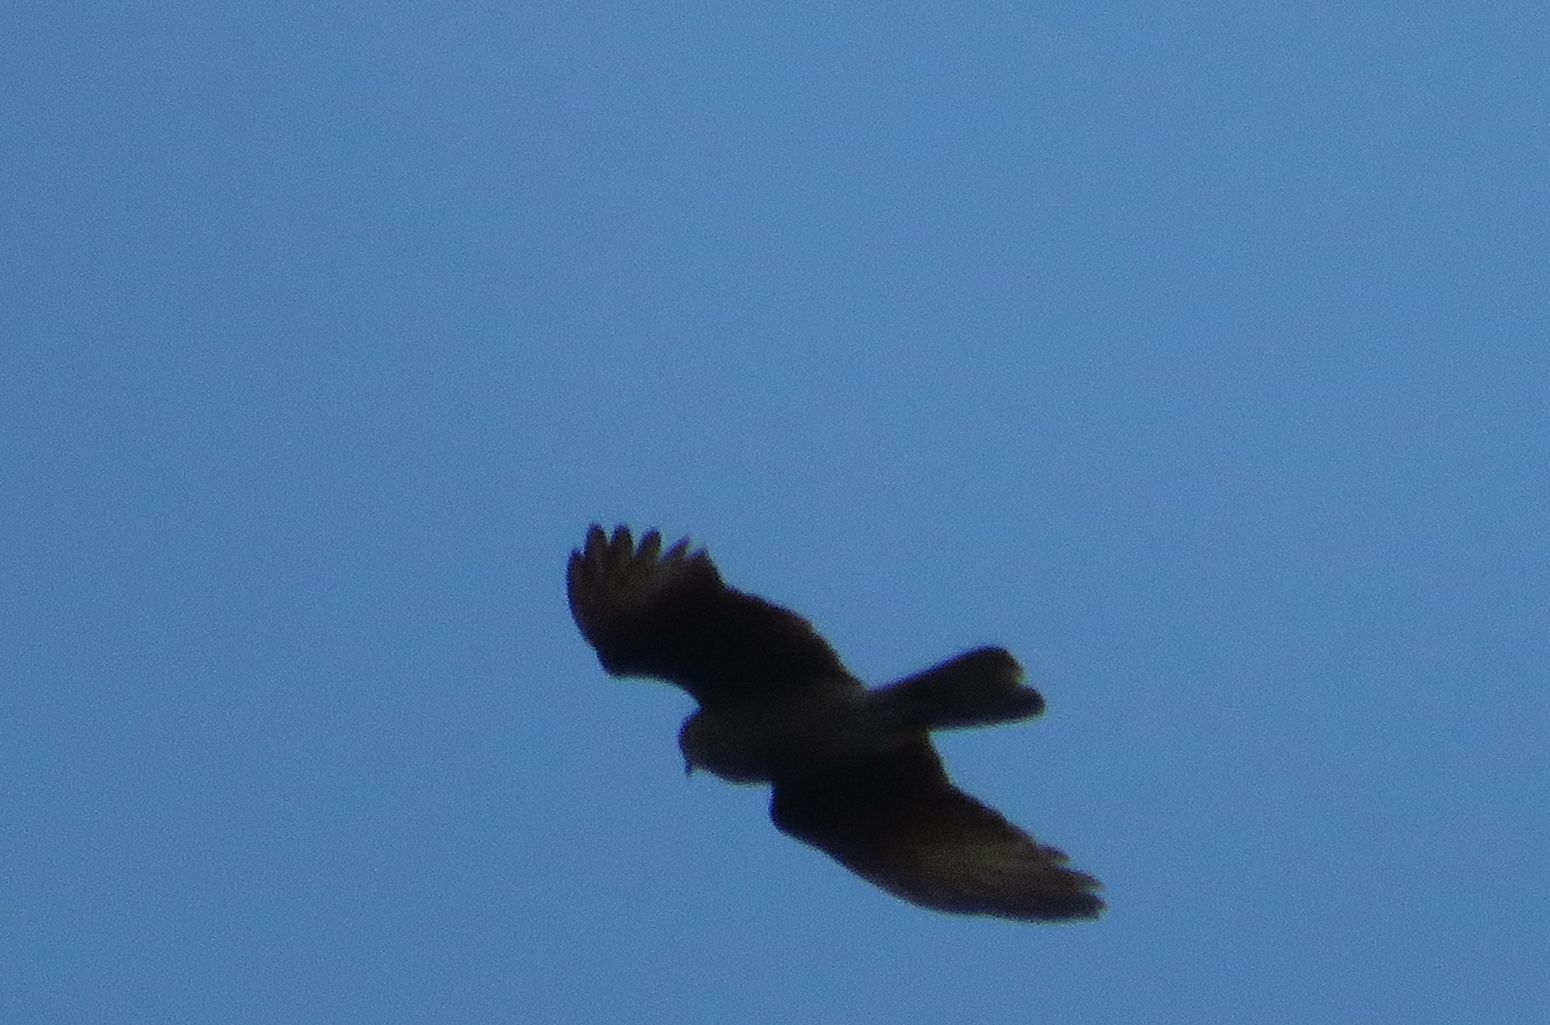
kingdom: Animalia
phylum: Chordata
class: Aves
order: Falconiformes
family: Falconidae
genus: Daptrius
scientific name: Daptrius
